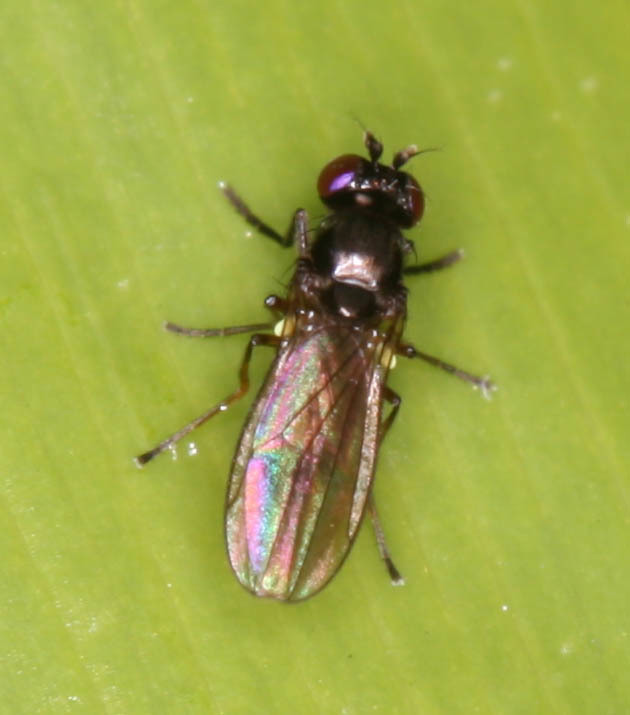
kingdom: Animalia
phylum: Arthropoda
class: Insecta
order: Diptera
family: Ephydridae
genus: Hydrellia
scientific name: Hydrellia tritici
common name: Shore fly
